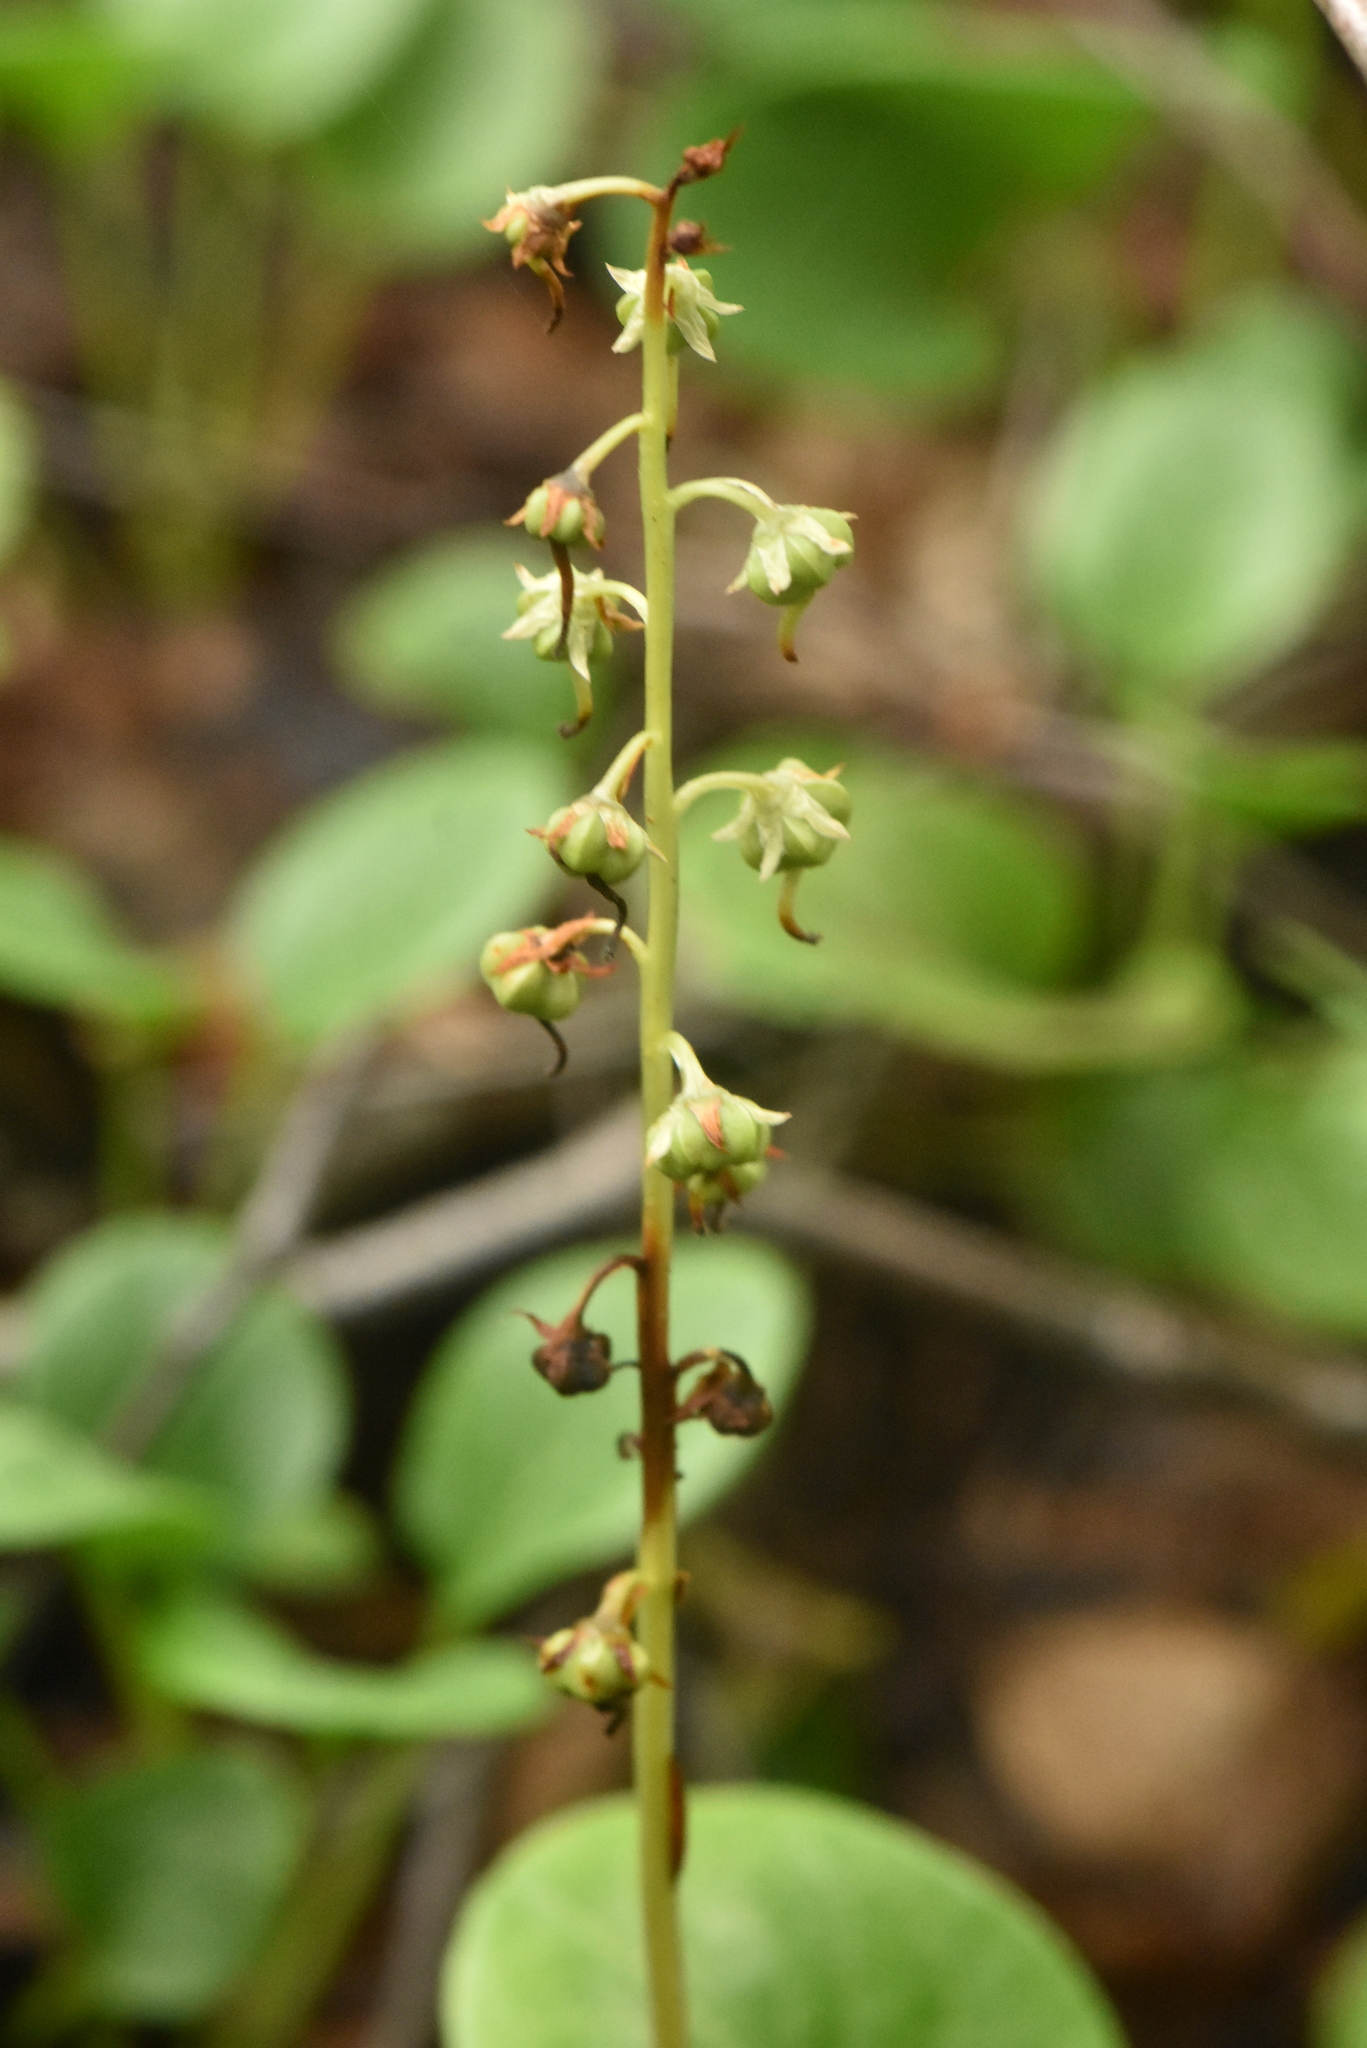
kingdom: Plantae
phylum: Tracheophyta
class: Magnoliopsida
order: Ericales
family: Ericaceae
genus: Pyrola
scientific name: Pyrola rotundifolia
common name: Round-leaved wintergreen
